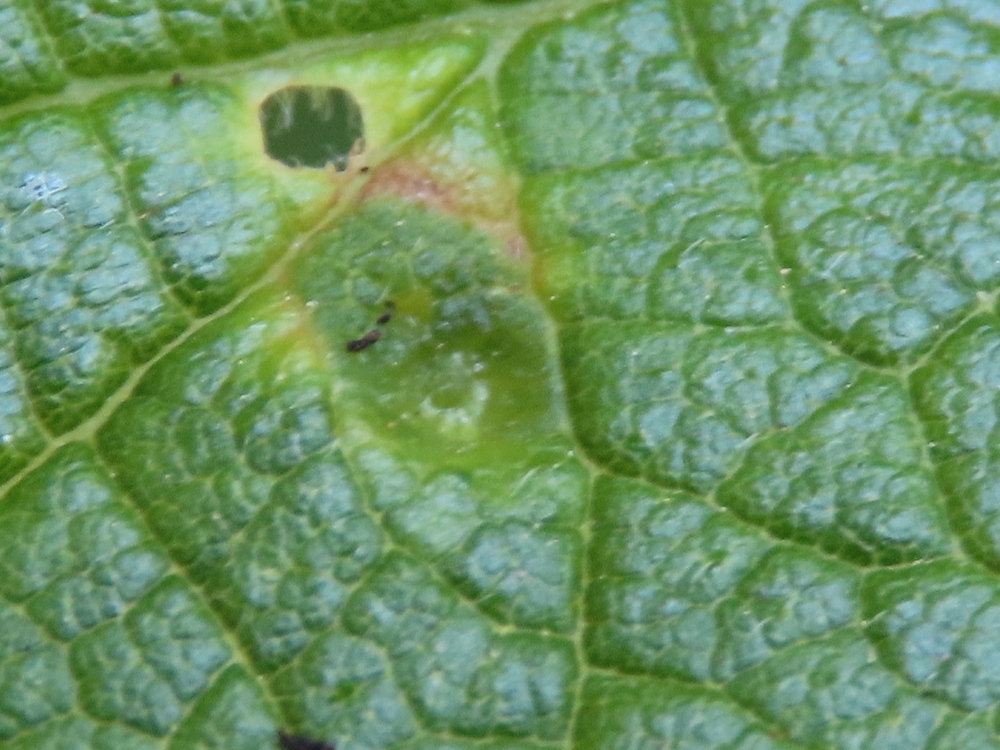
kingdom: Animalia
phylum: Arthropoda
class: Insecta
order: Hemiptera
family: Aphalaridae
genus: Pachypsylla
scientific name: Pachypsylla celtidisvesicula
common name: Hackberry blister gall psyllid
